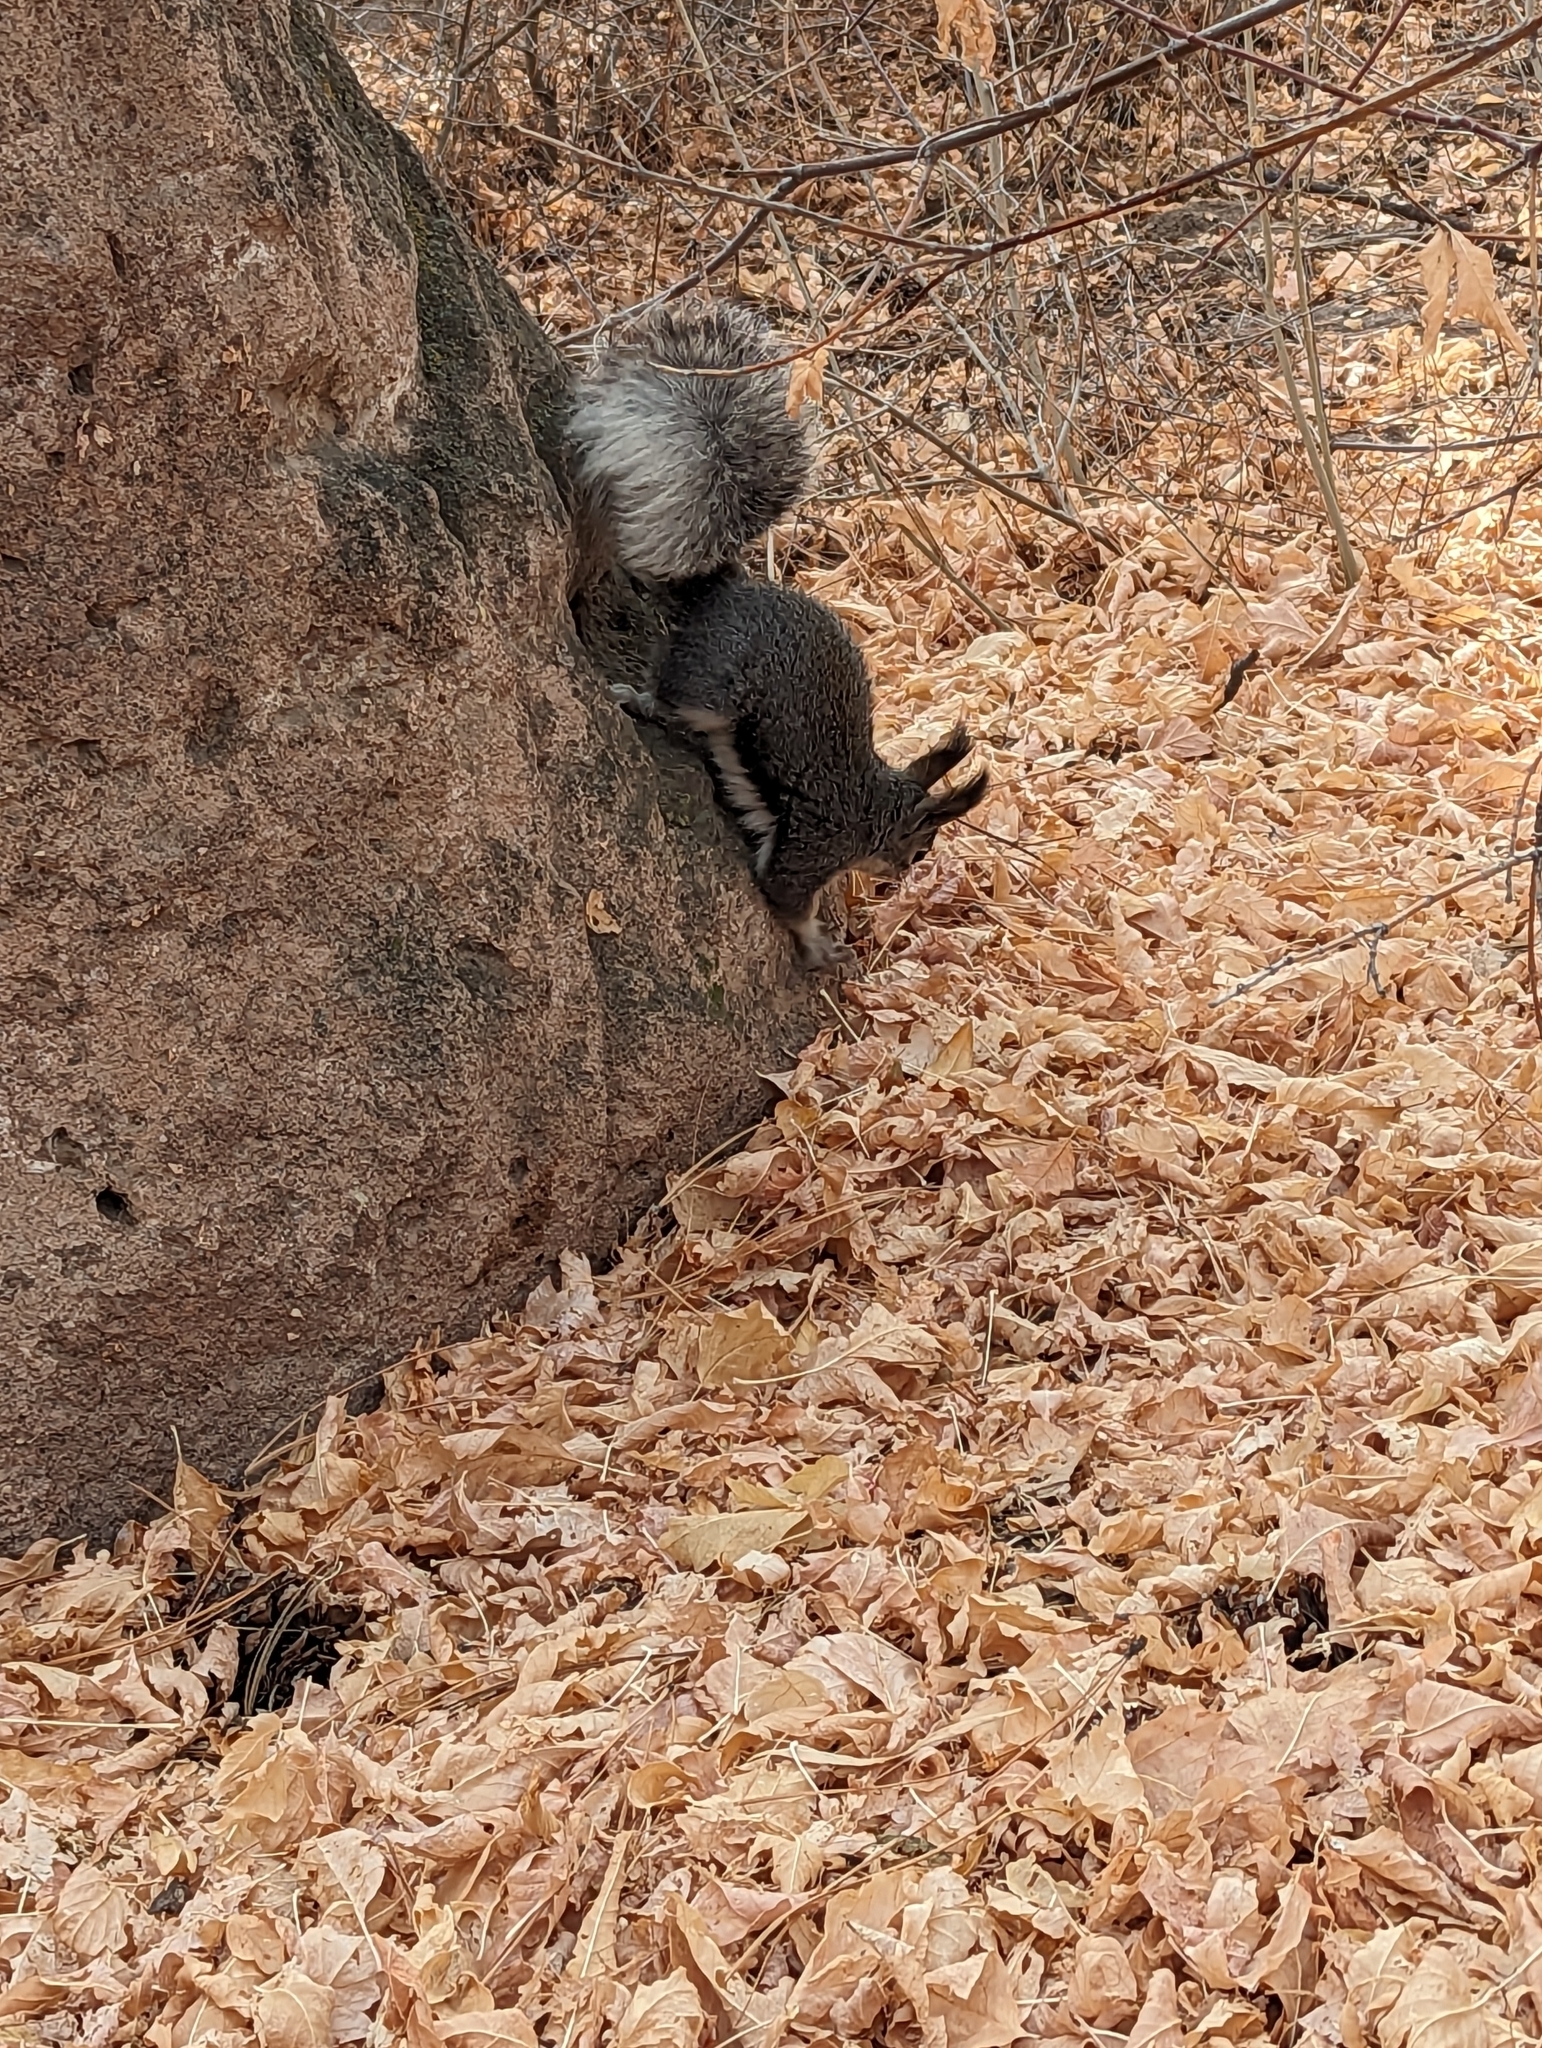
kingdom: Animalia
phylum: Chordata
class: Mammalia
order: Rodentia
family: Sciuridae
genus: Sciurus
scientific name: Sciurus aberti
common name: Abert's squirrel
